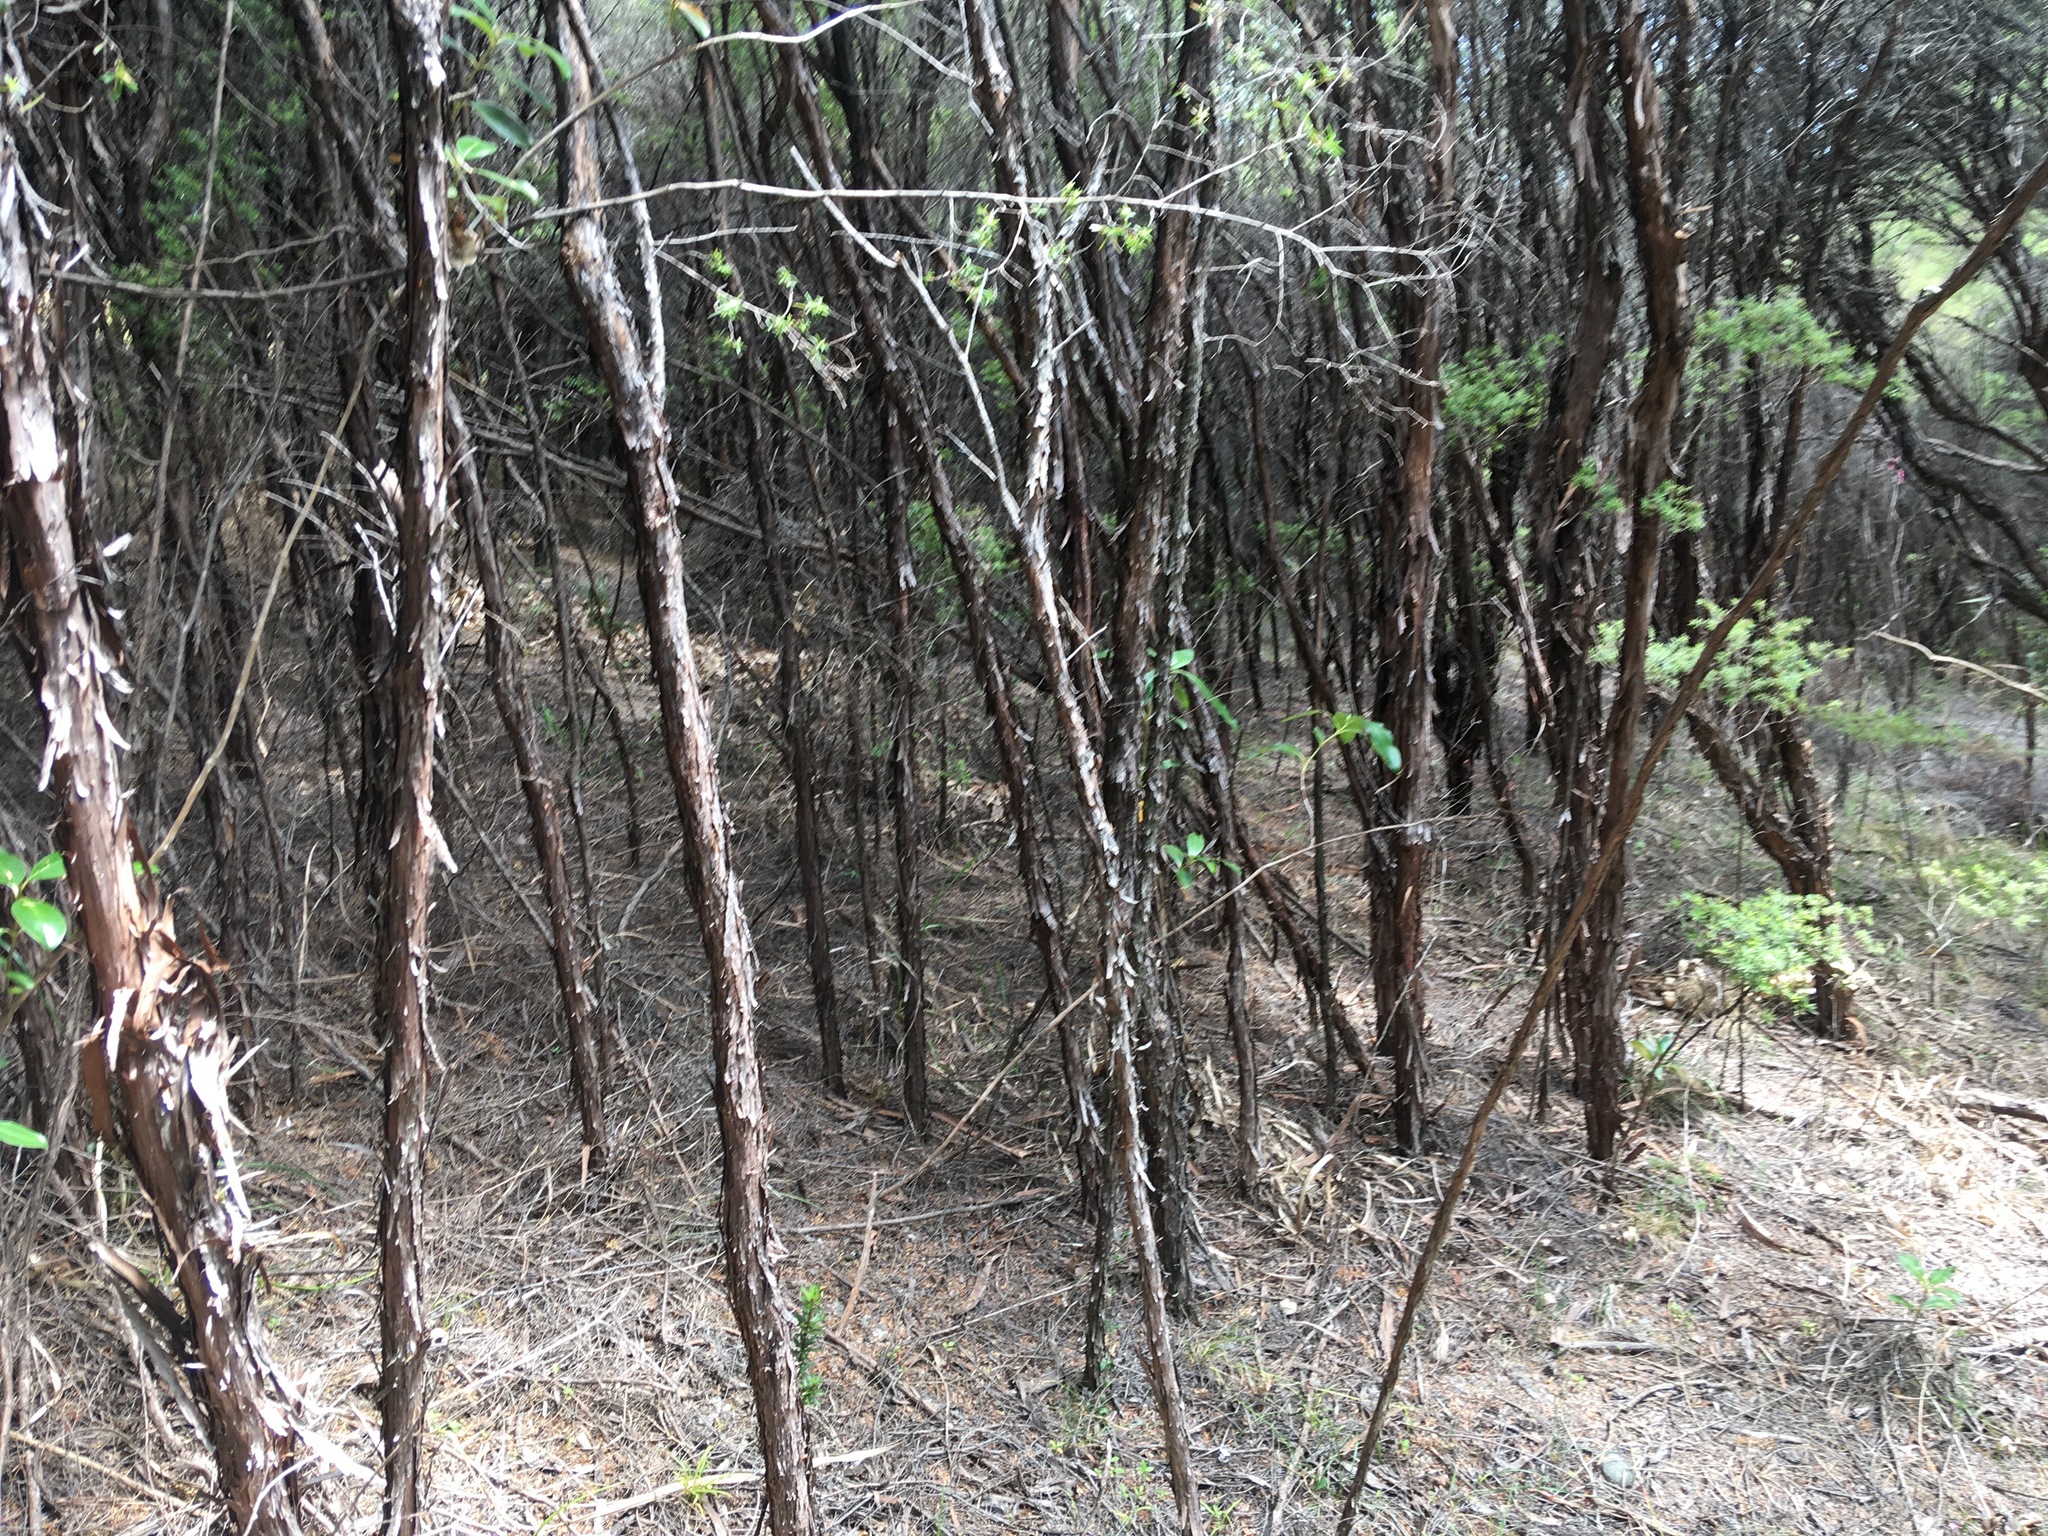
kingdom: Plantae
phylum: Tracheophyta
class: Magnoliopsida
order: Myrtales
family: Myrtaceae
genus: Leptospermum
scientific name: Leptospermum scoparium
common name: Broom tea-tree
